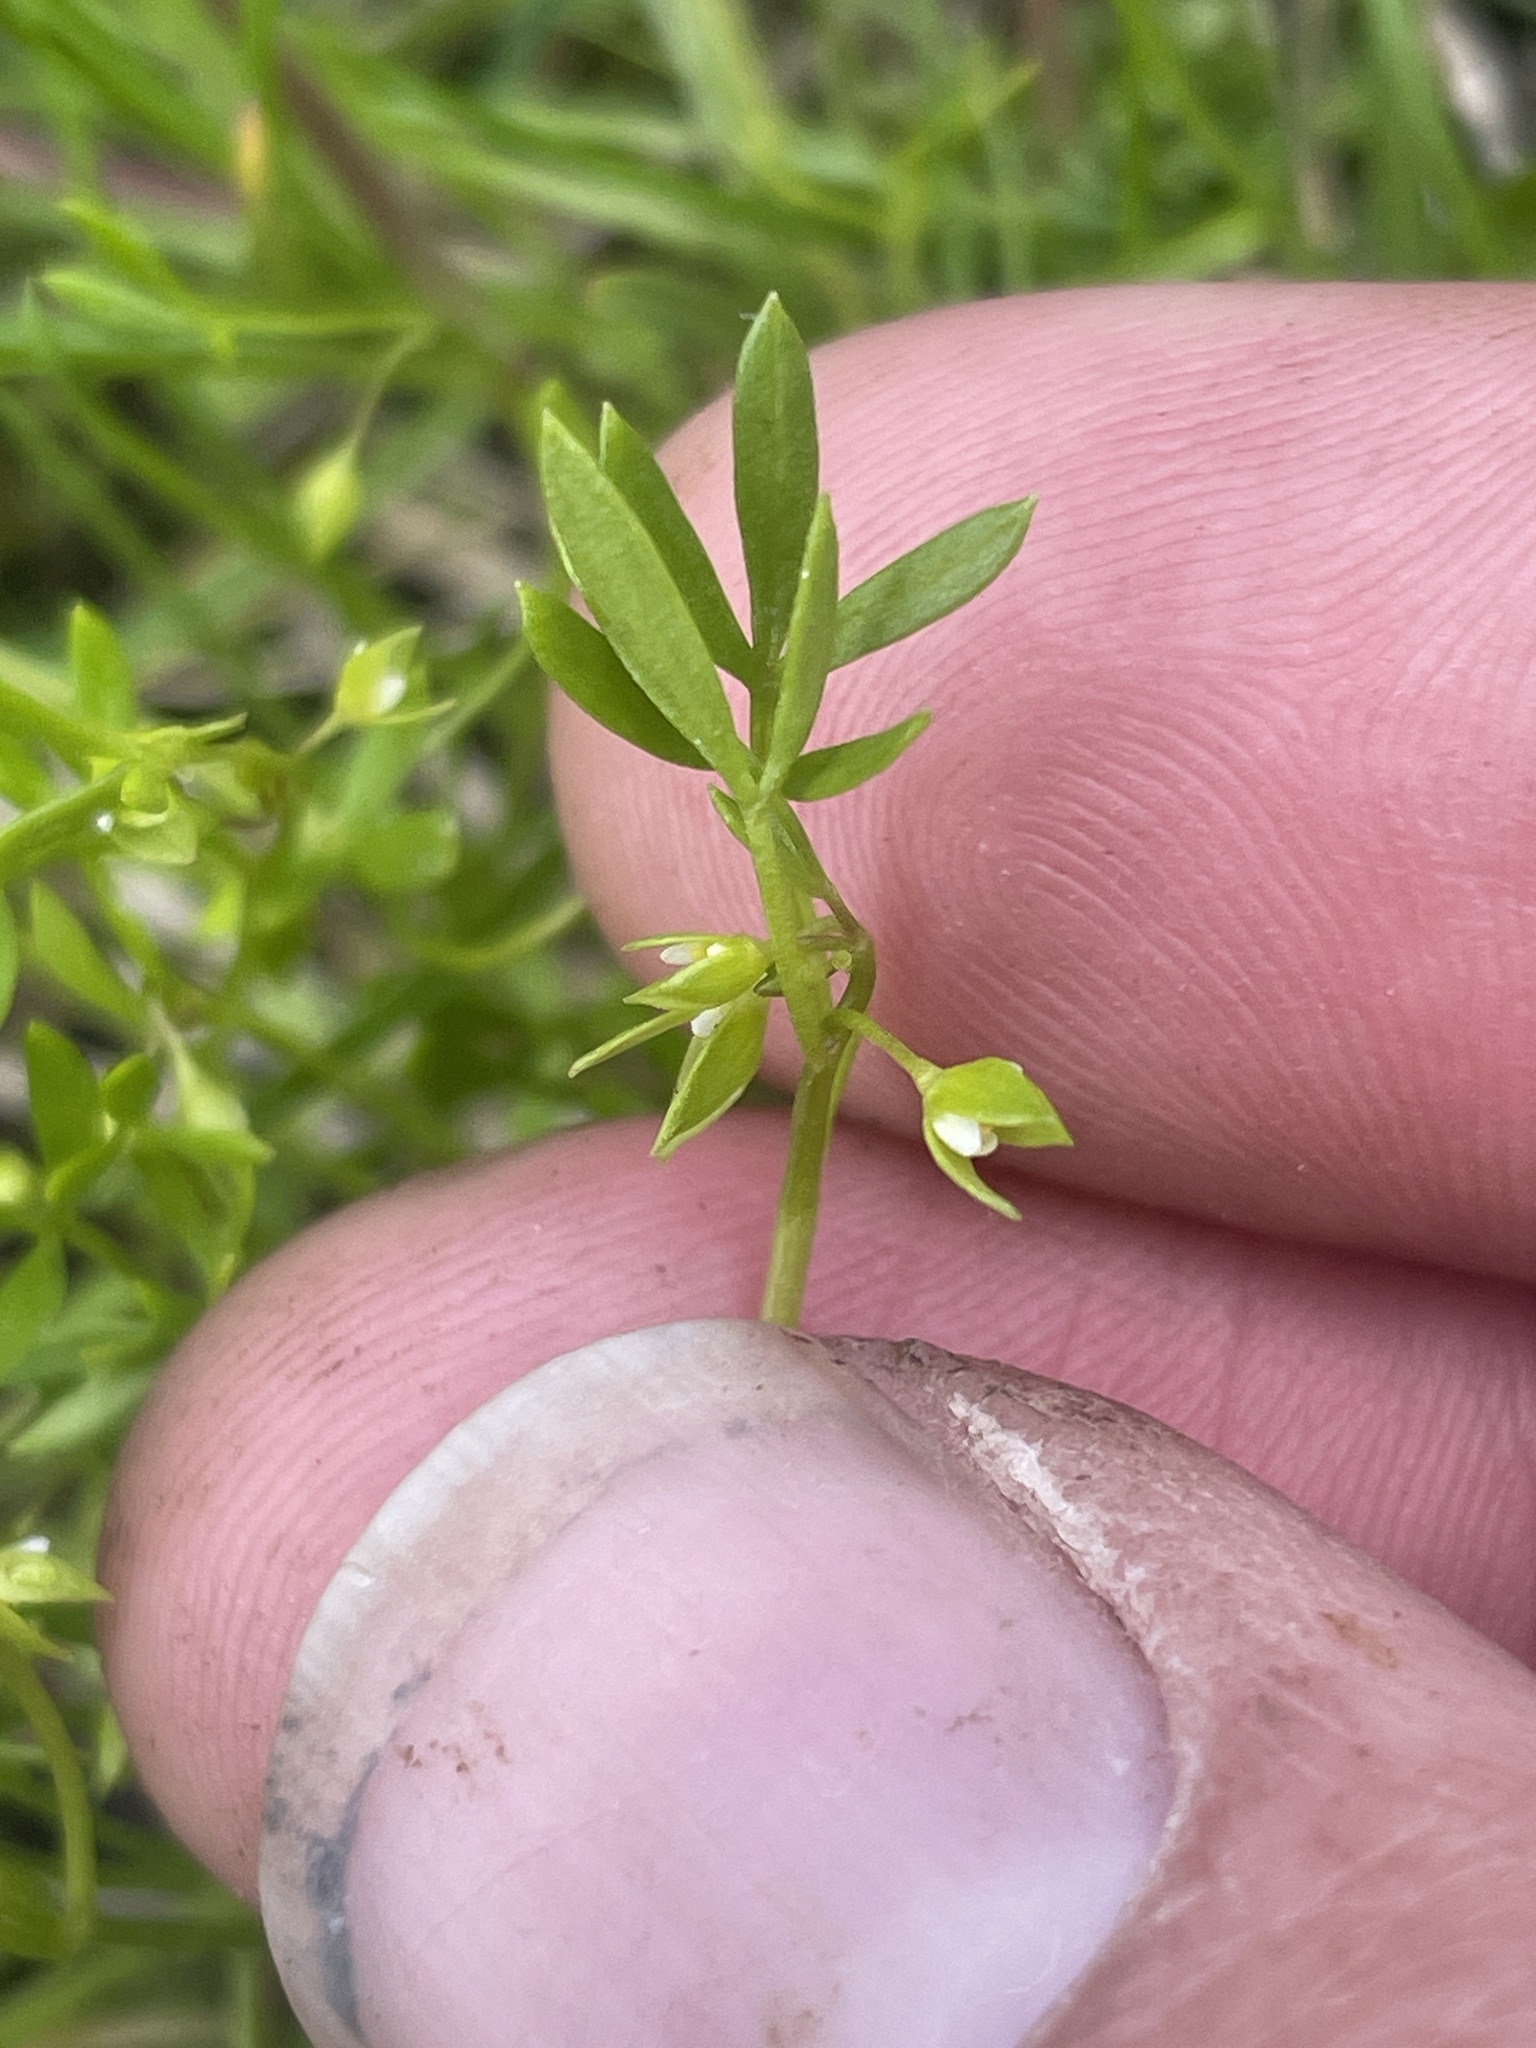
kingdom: Plantae
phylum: Tracheophyta
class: Magnoliopsida
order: Brassicales
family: Limnanthaceae
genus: Floerkea
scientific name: Floerkea proserpinacoides
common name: False mermaid
